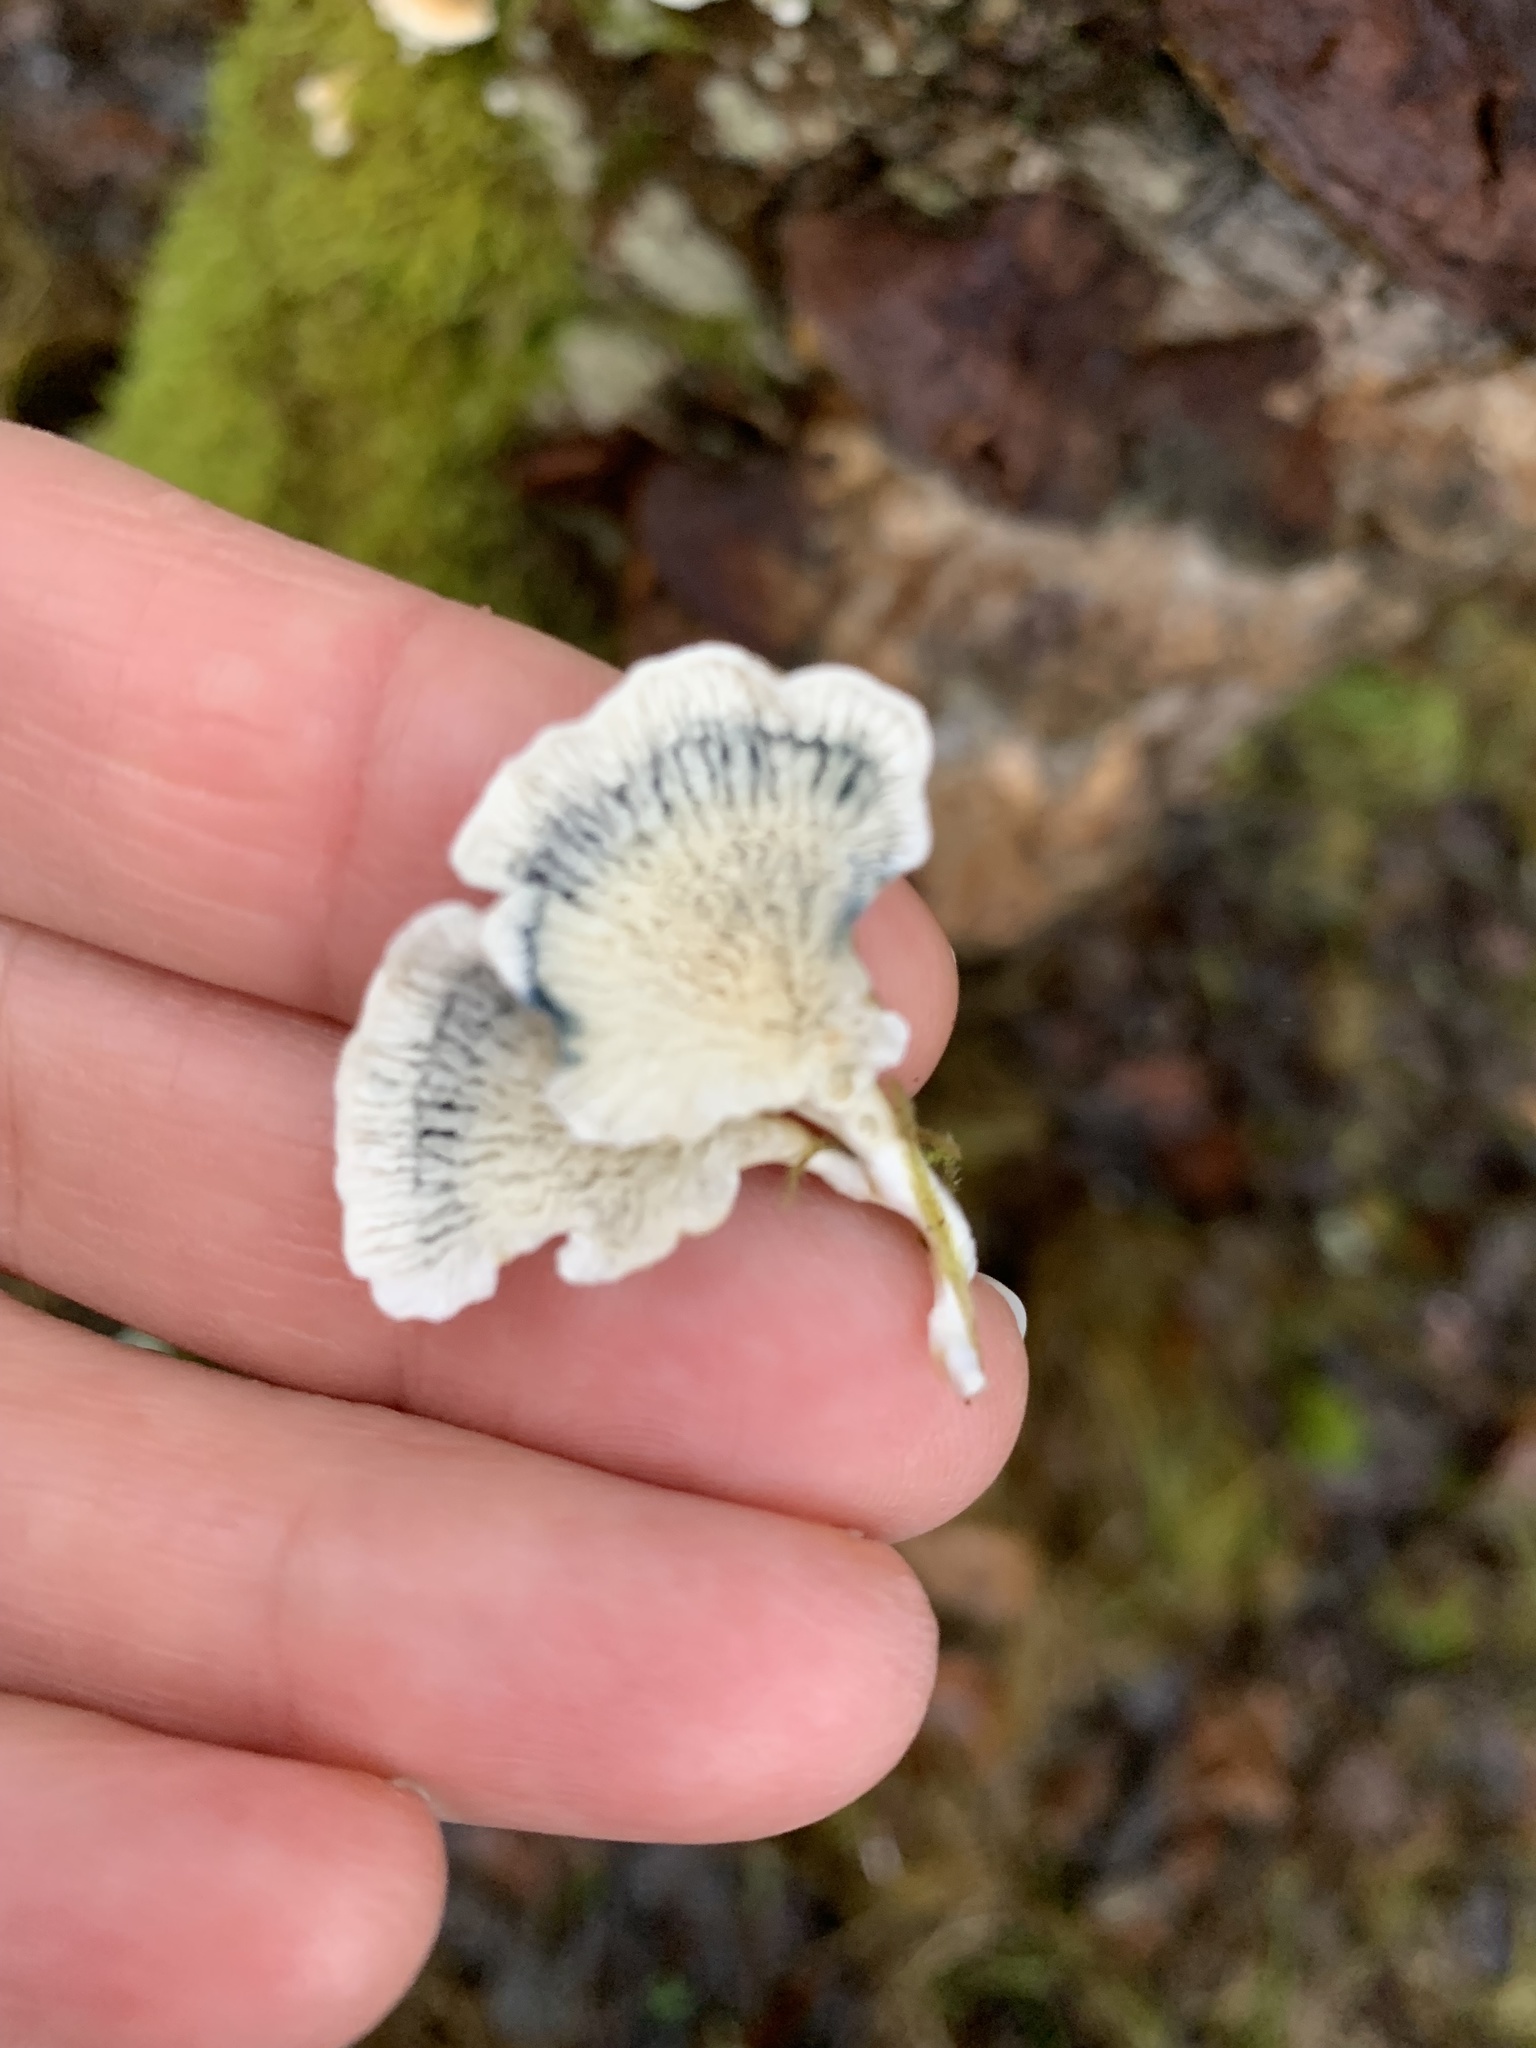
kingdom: Fungi
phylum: Basidiomycota
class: Agaricomycetes
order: Amylocorticiales
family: Amylocorticiaceae
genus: Plicaturopsis
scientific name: Plicaturopsis crispa
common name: Crimped gill
